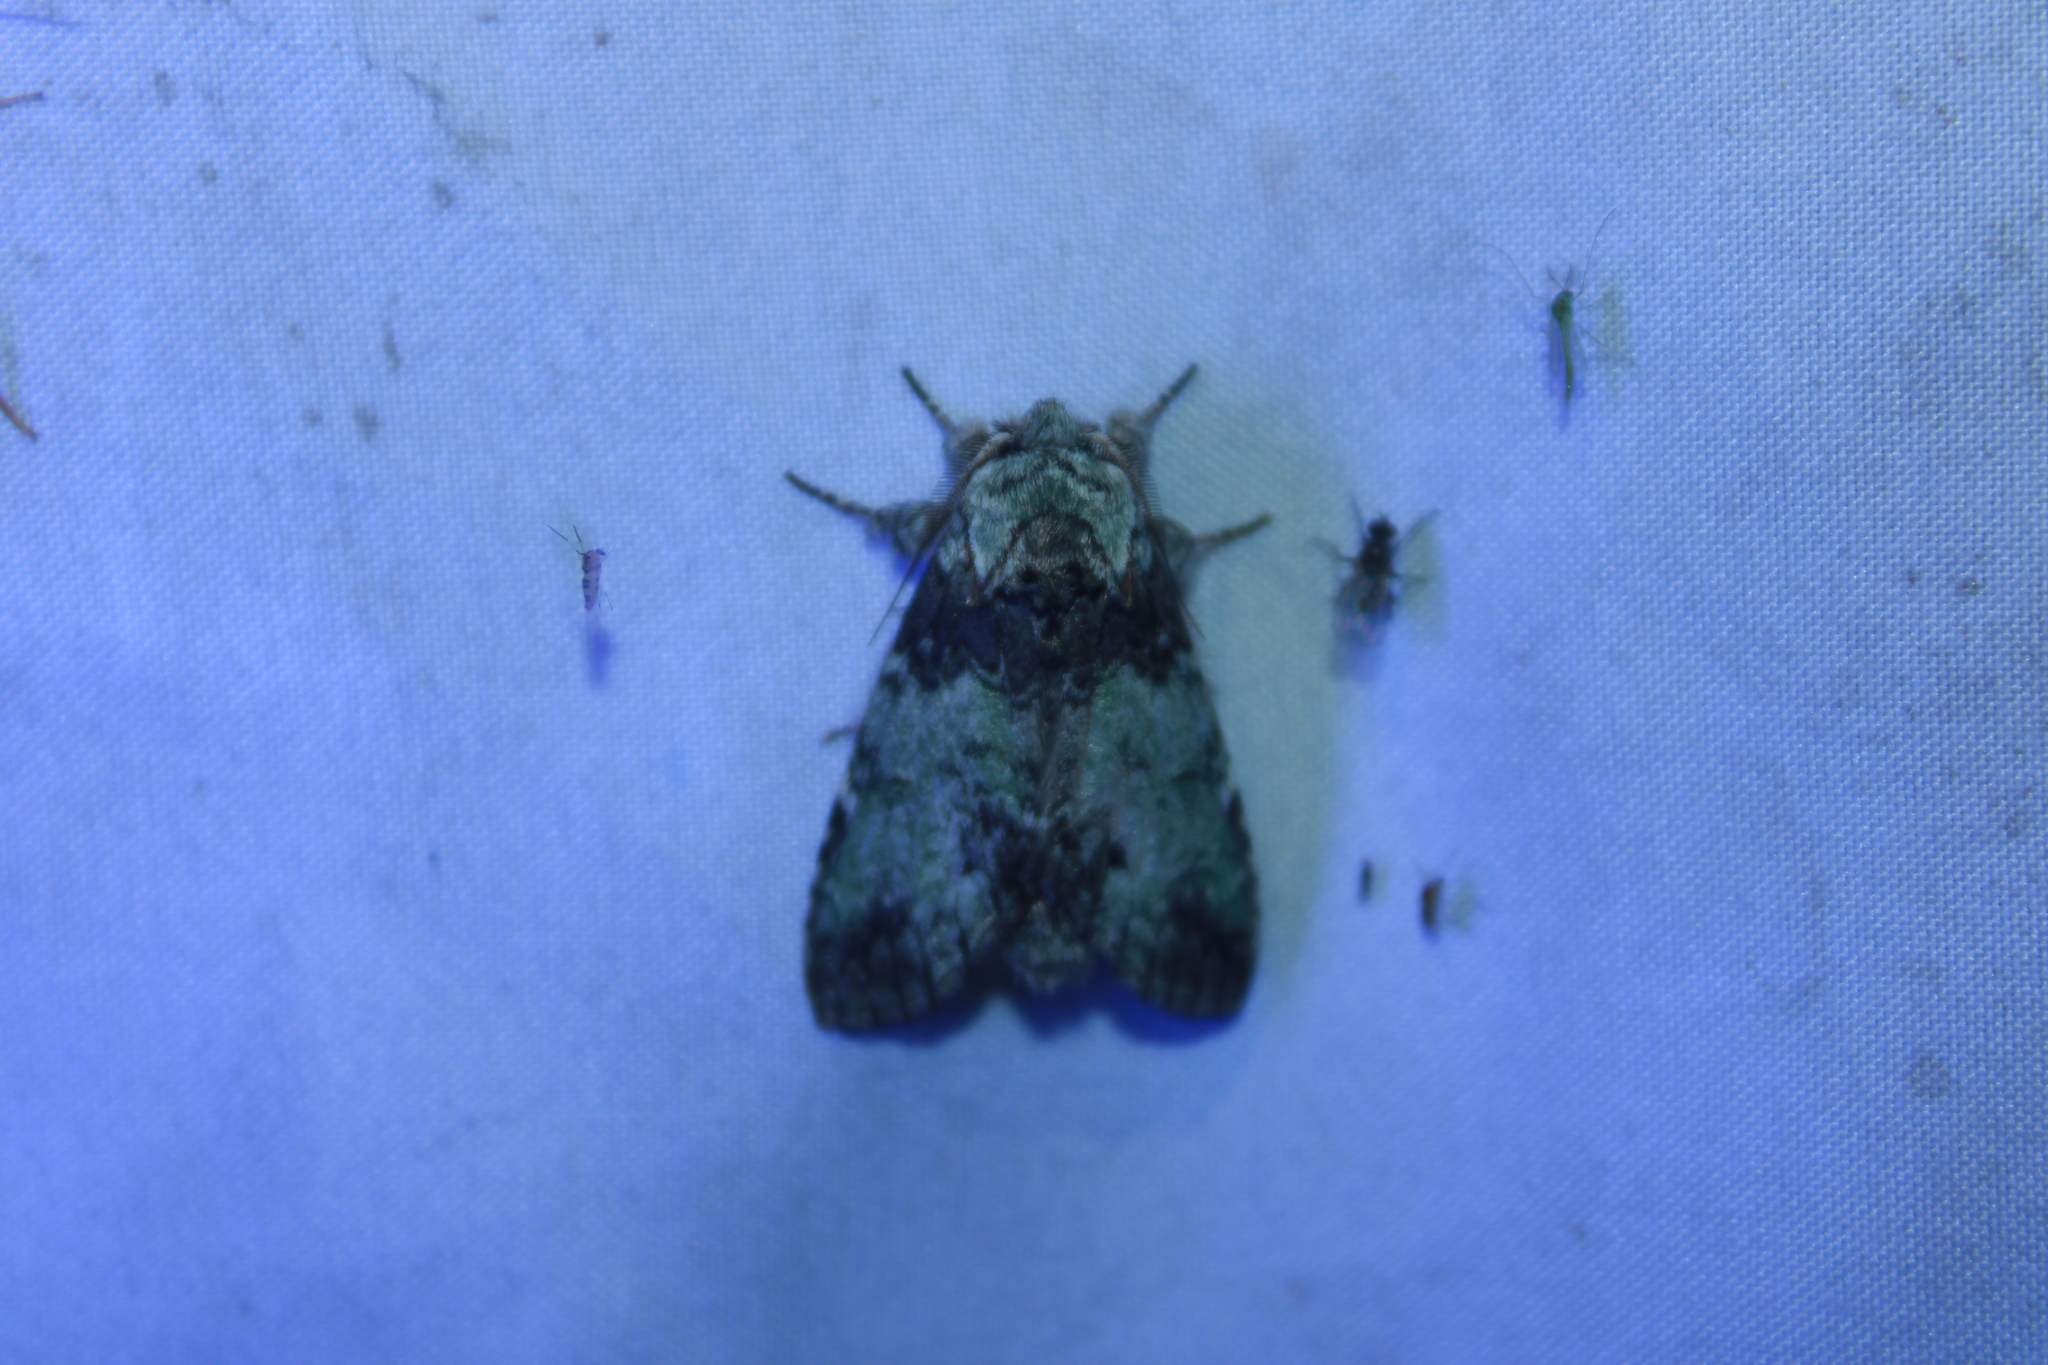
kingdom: Animalia
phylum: Arthropoda
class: Insecta
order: Lepidoptera
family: Notodontidae
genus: Macrurocampa
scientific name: Macrurocampa marthesia
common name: Mottled prominent
